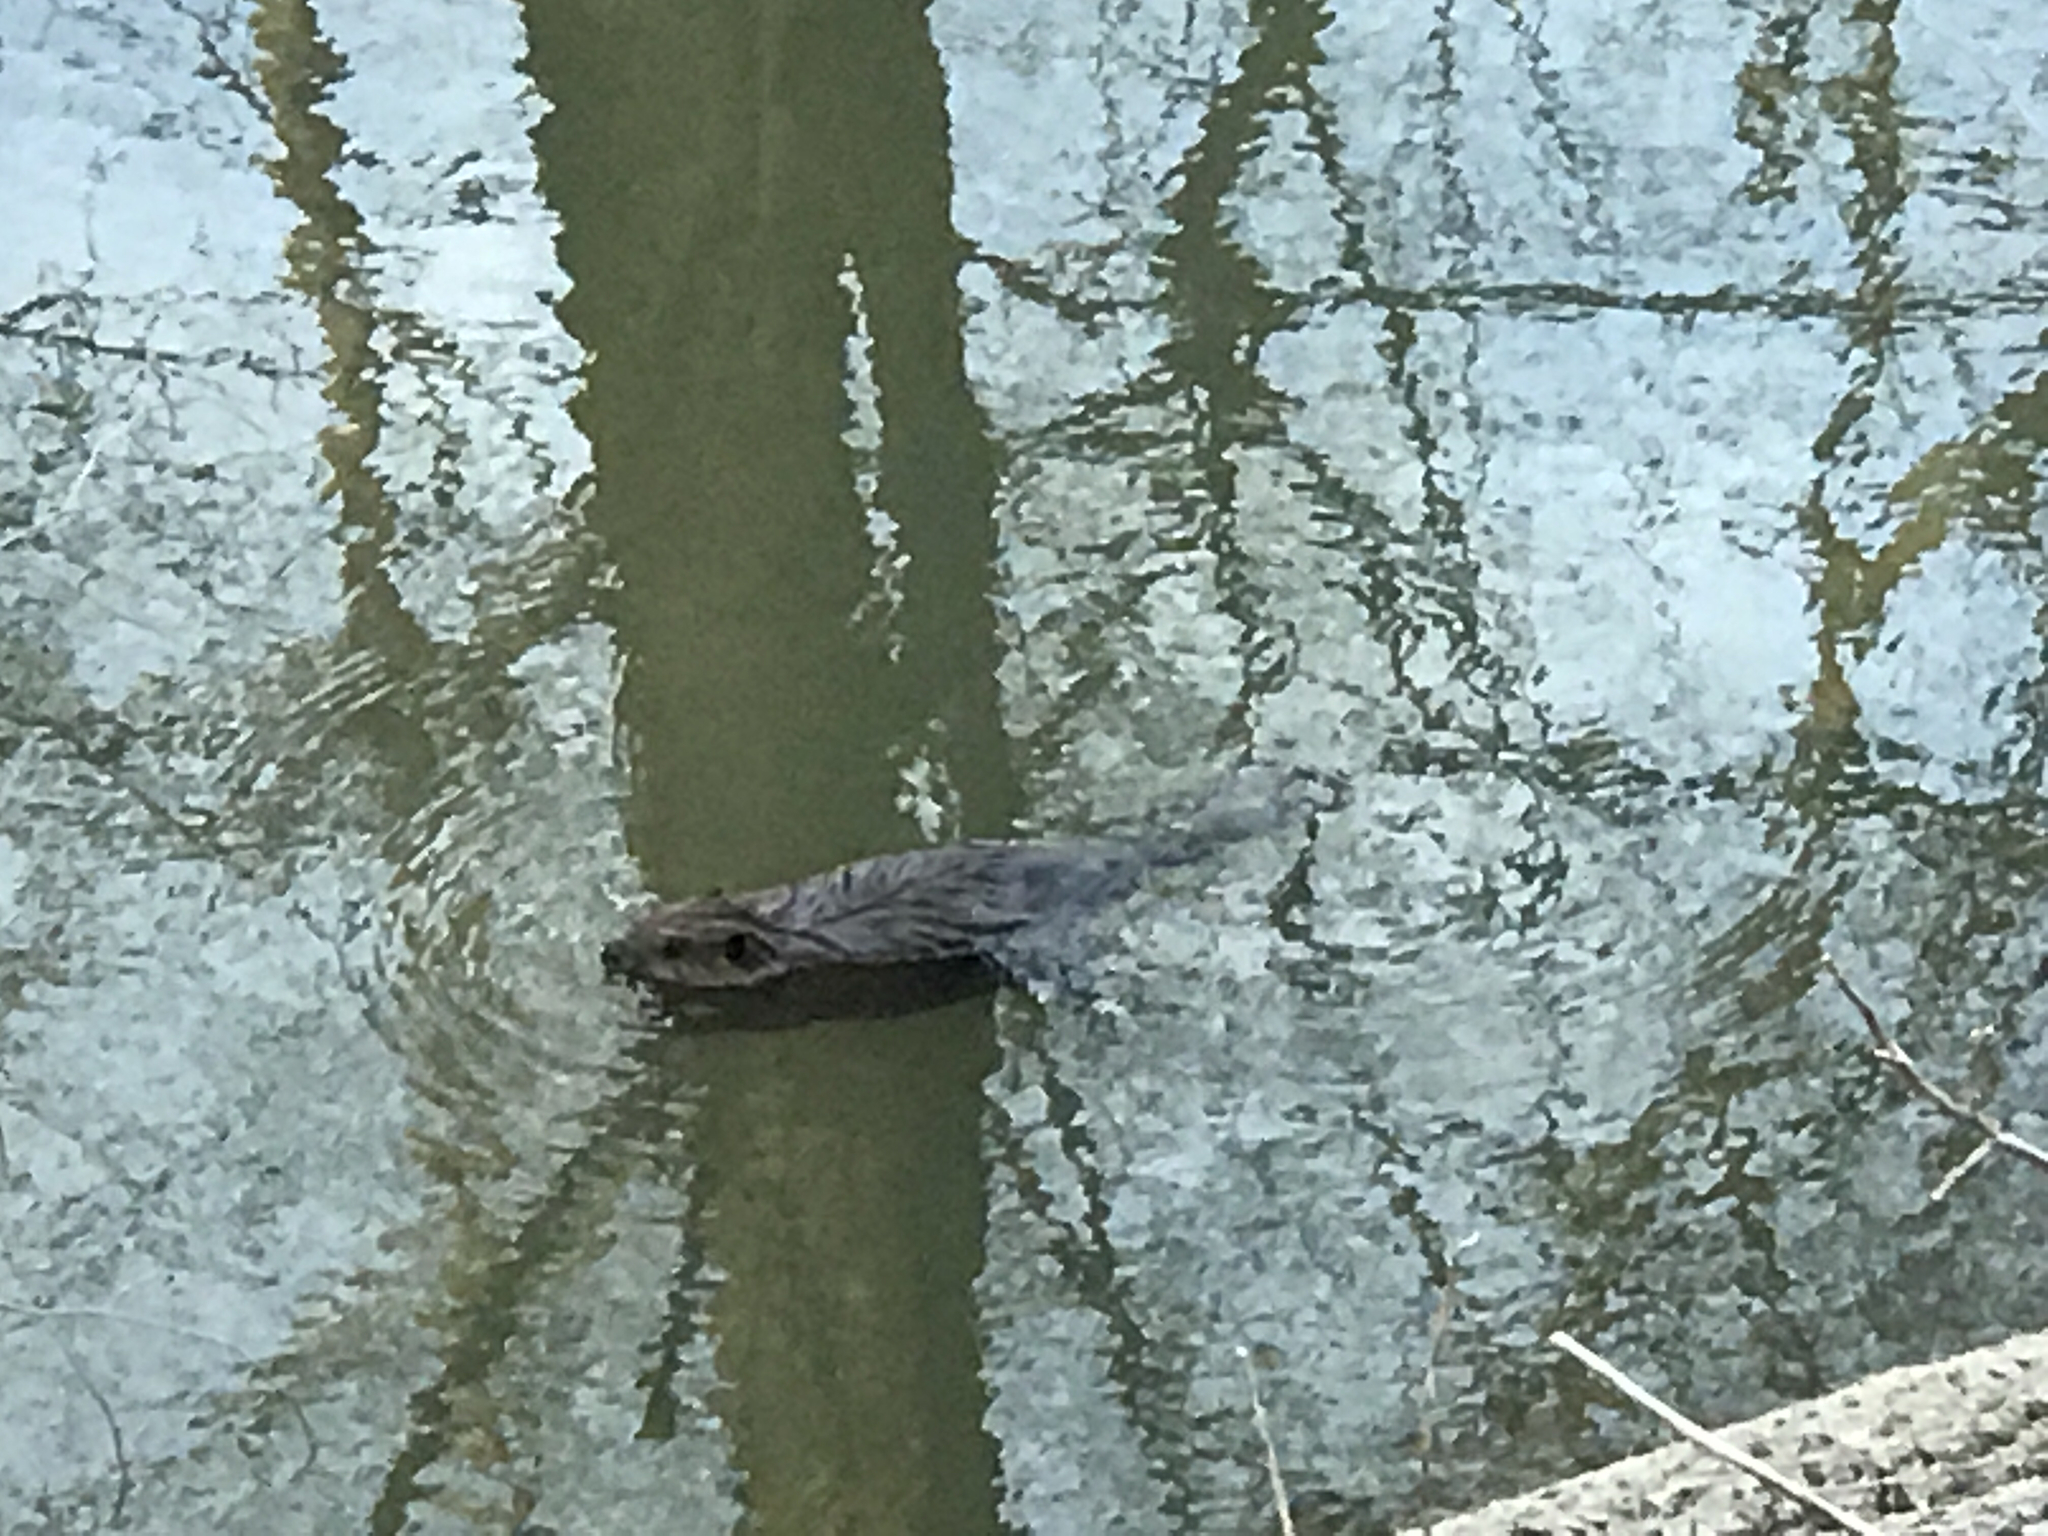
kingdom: Animalia
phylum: Chordata
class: Mammalia
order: Rodentia
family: Castoridae
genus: Castor
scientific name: Castor canadensis
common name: American beaver
